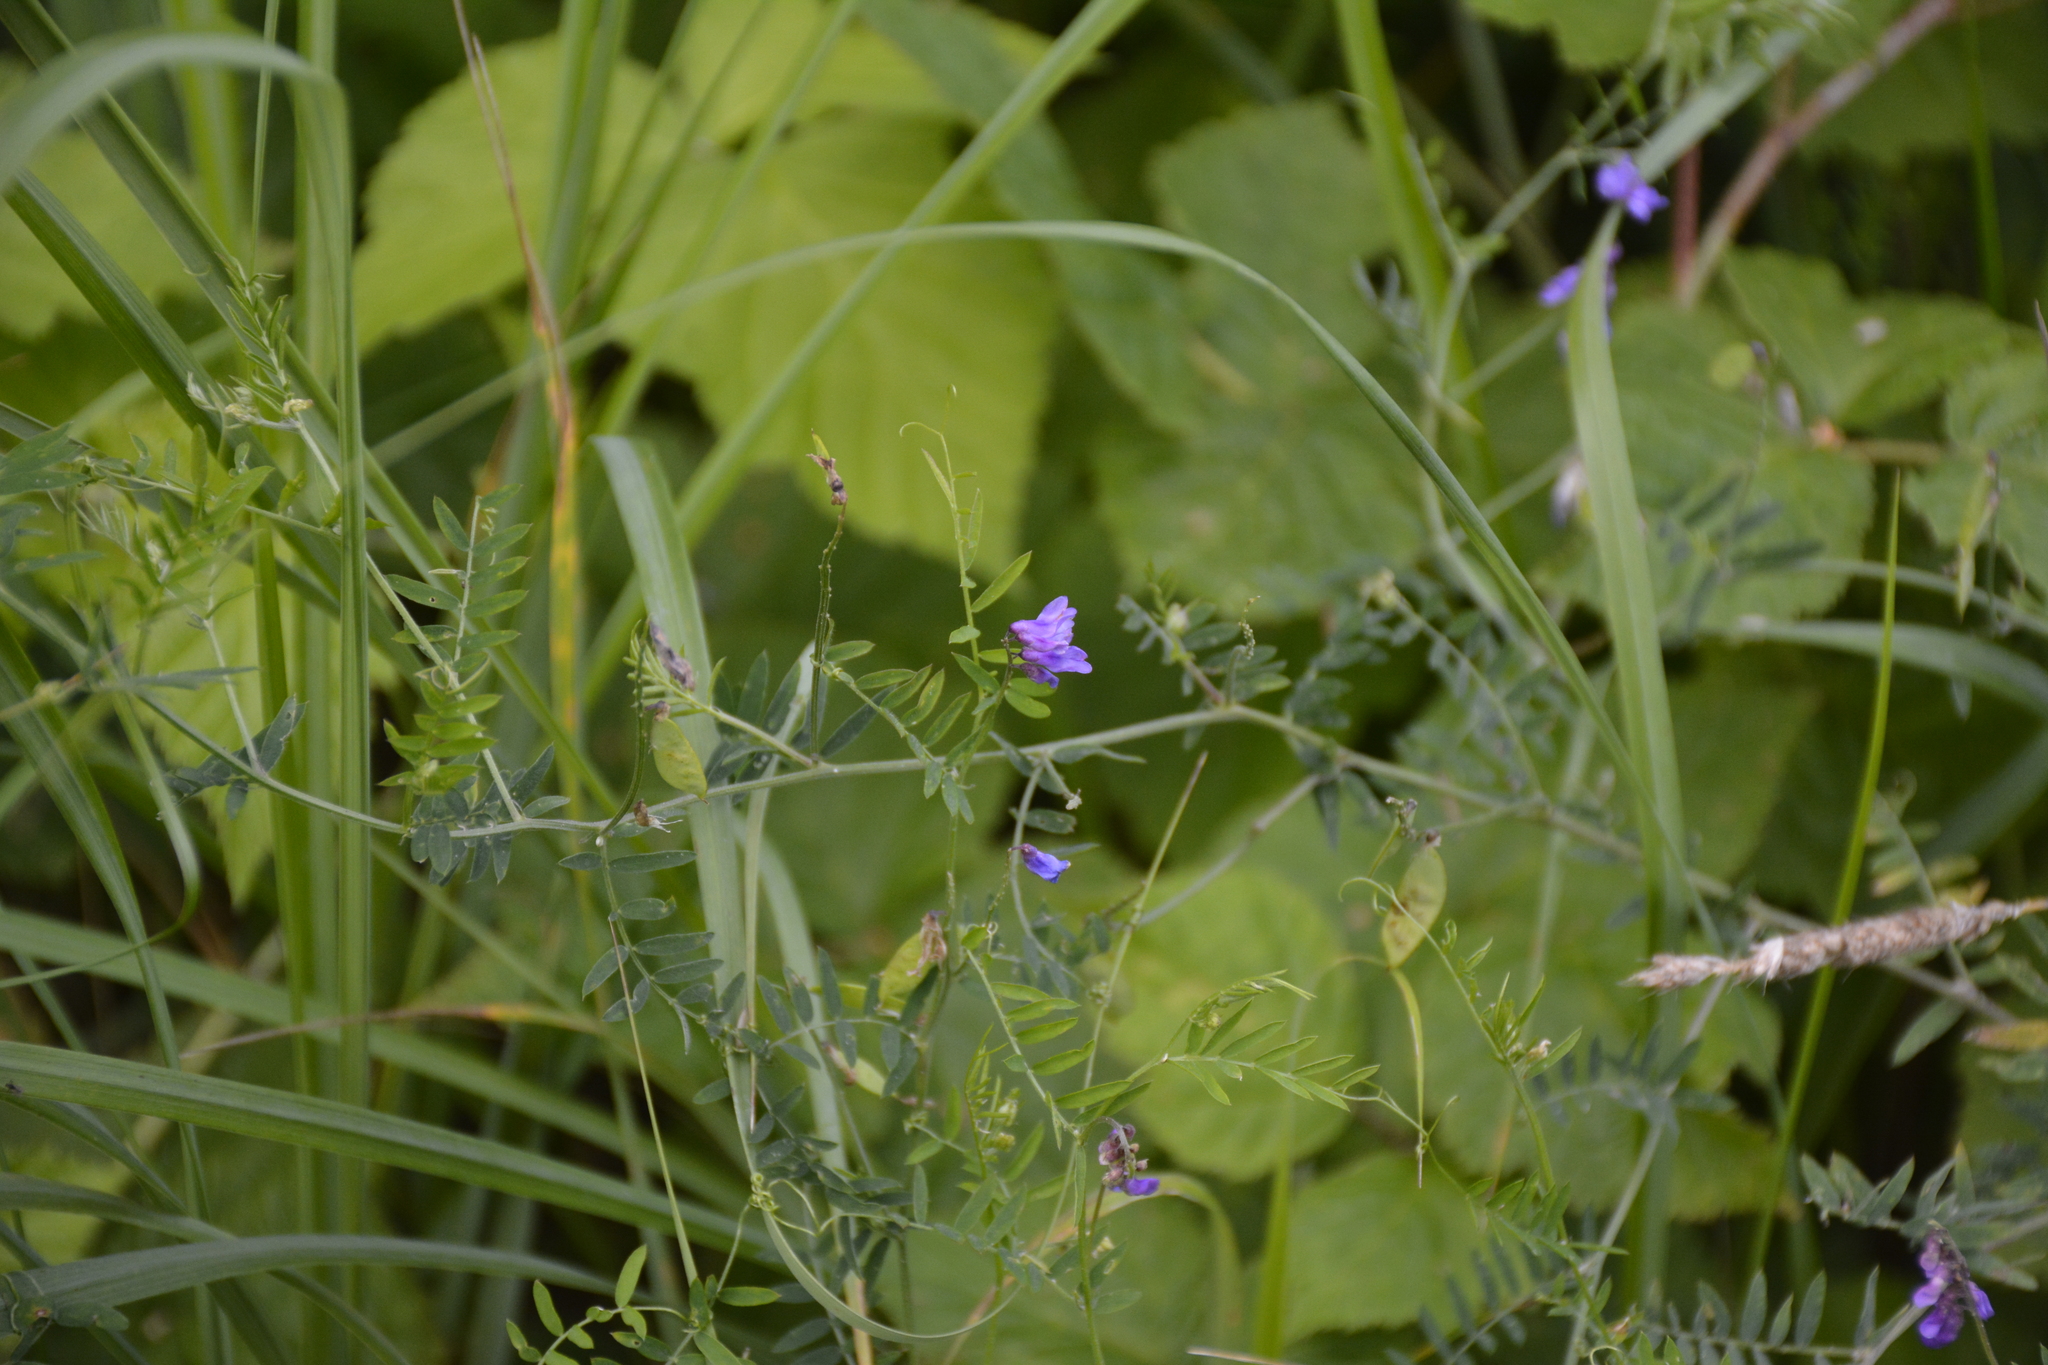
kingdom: Plantae
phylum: Tracheophyta
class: Magnoliopsida
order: Fabales
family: Fabaceae
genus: Vicia
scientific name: Vicia cracca
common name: Bird vetch
